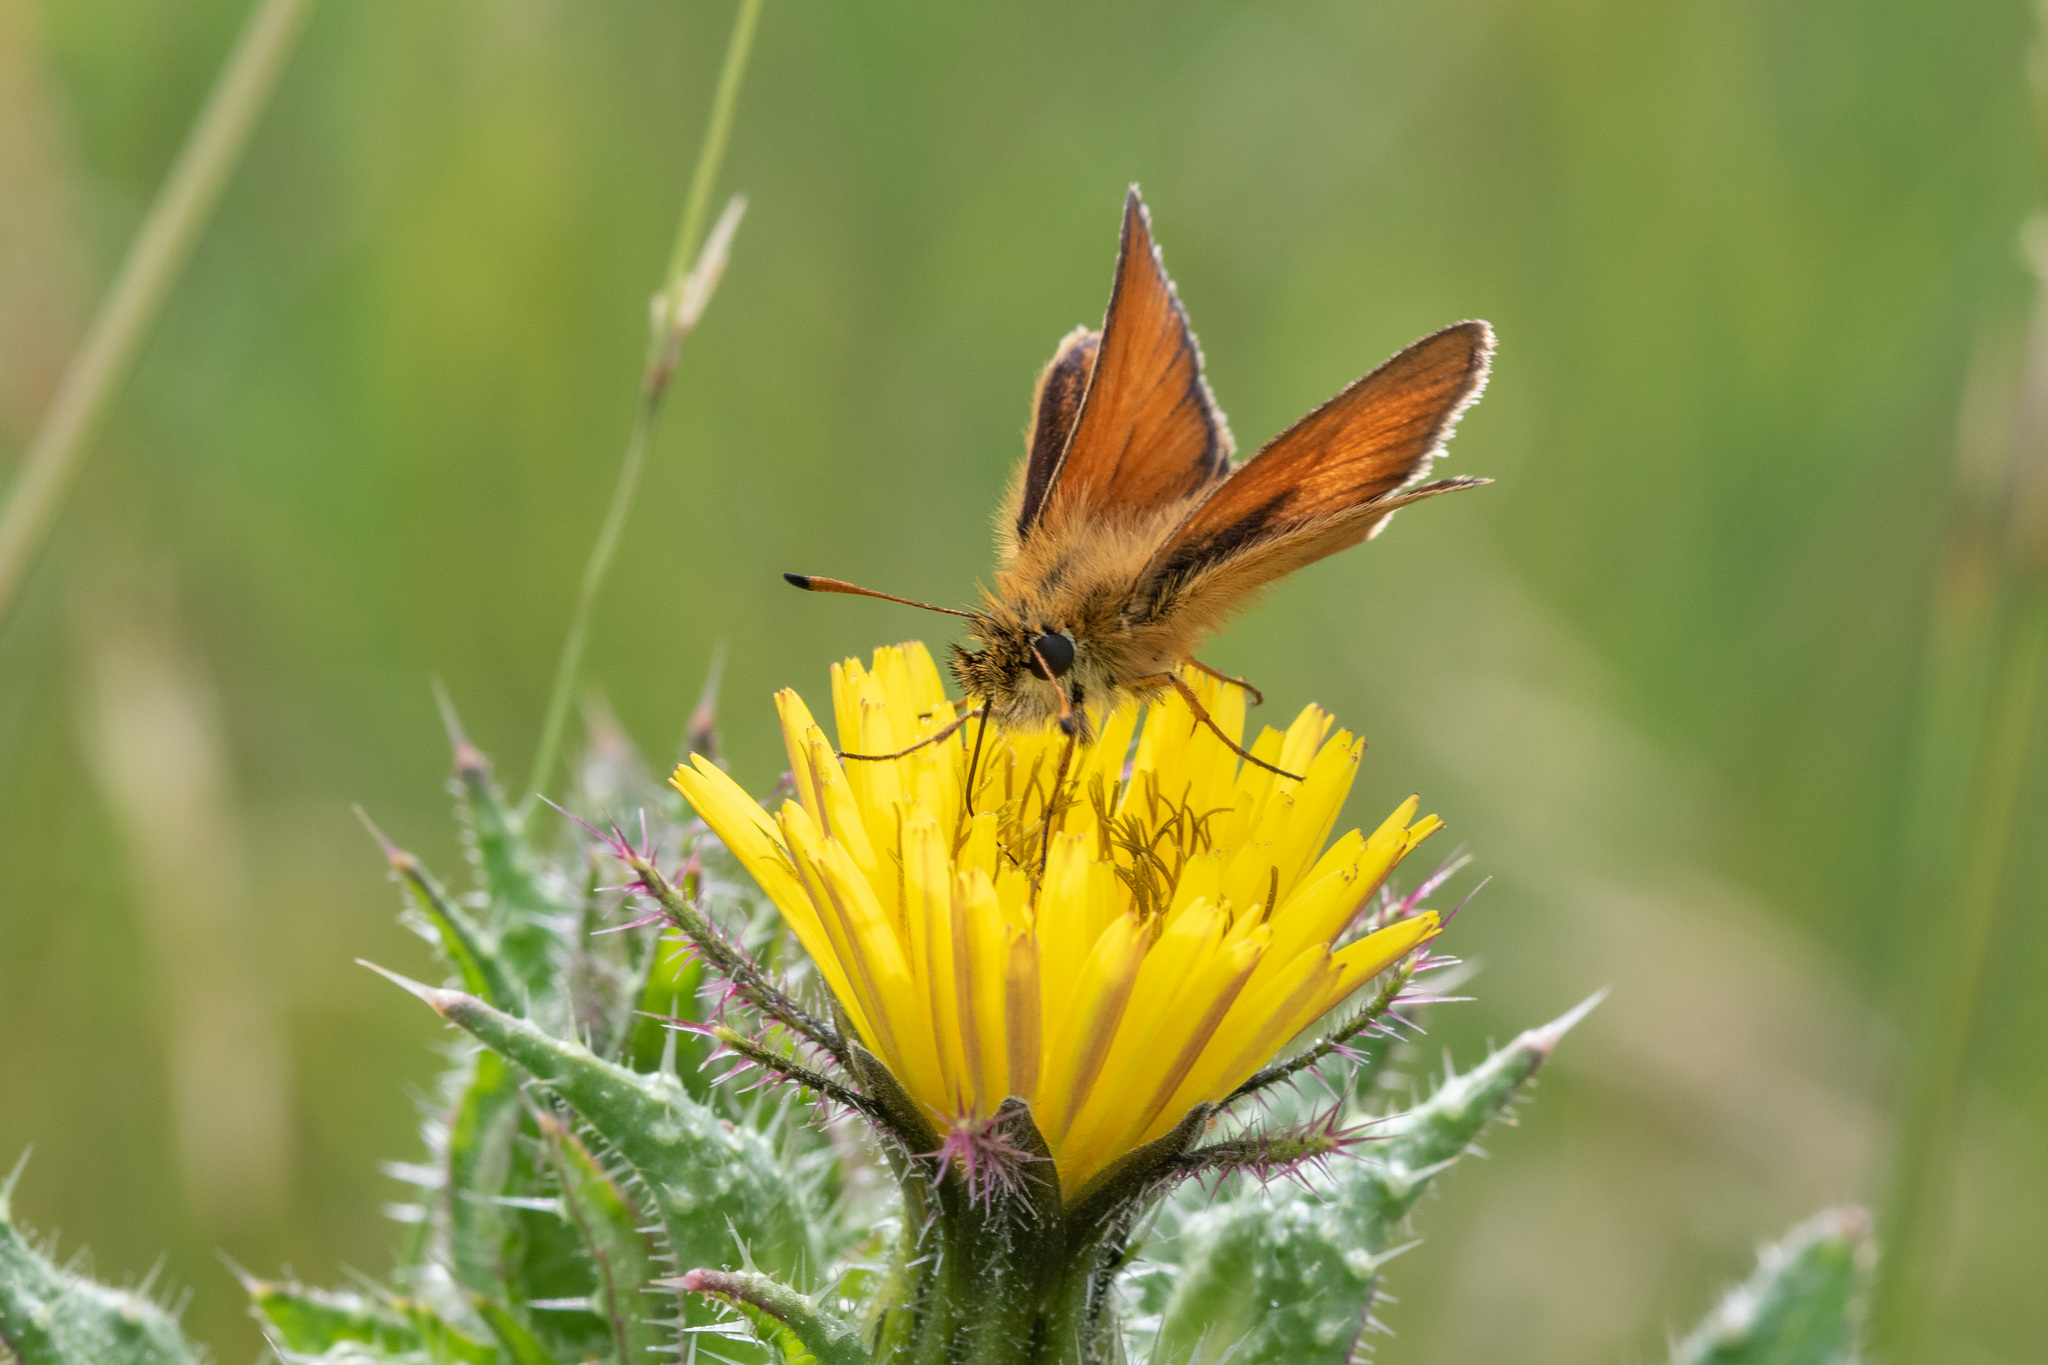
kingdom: Animalia
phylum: Arthropoda
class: Insecta
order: Lepidoptera
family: Hesperiidae
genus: Thymelicus
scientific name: Thymelicus lineola
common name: Essex skipper
